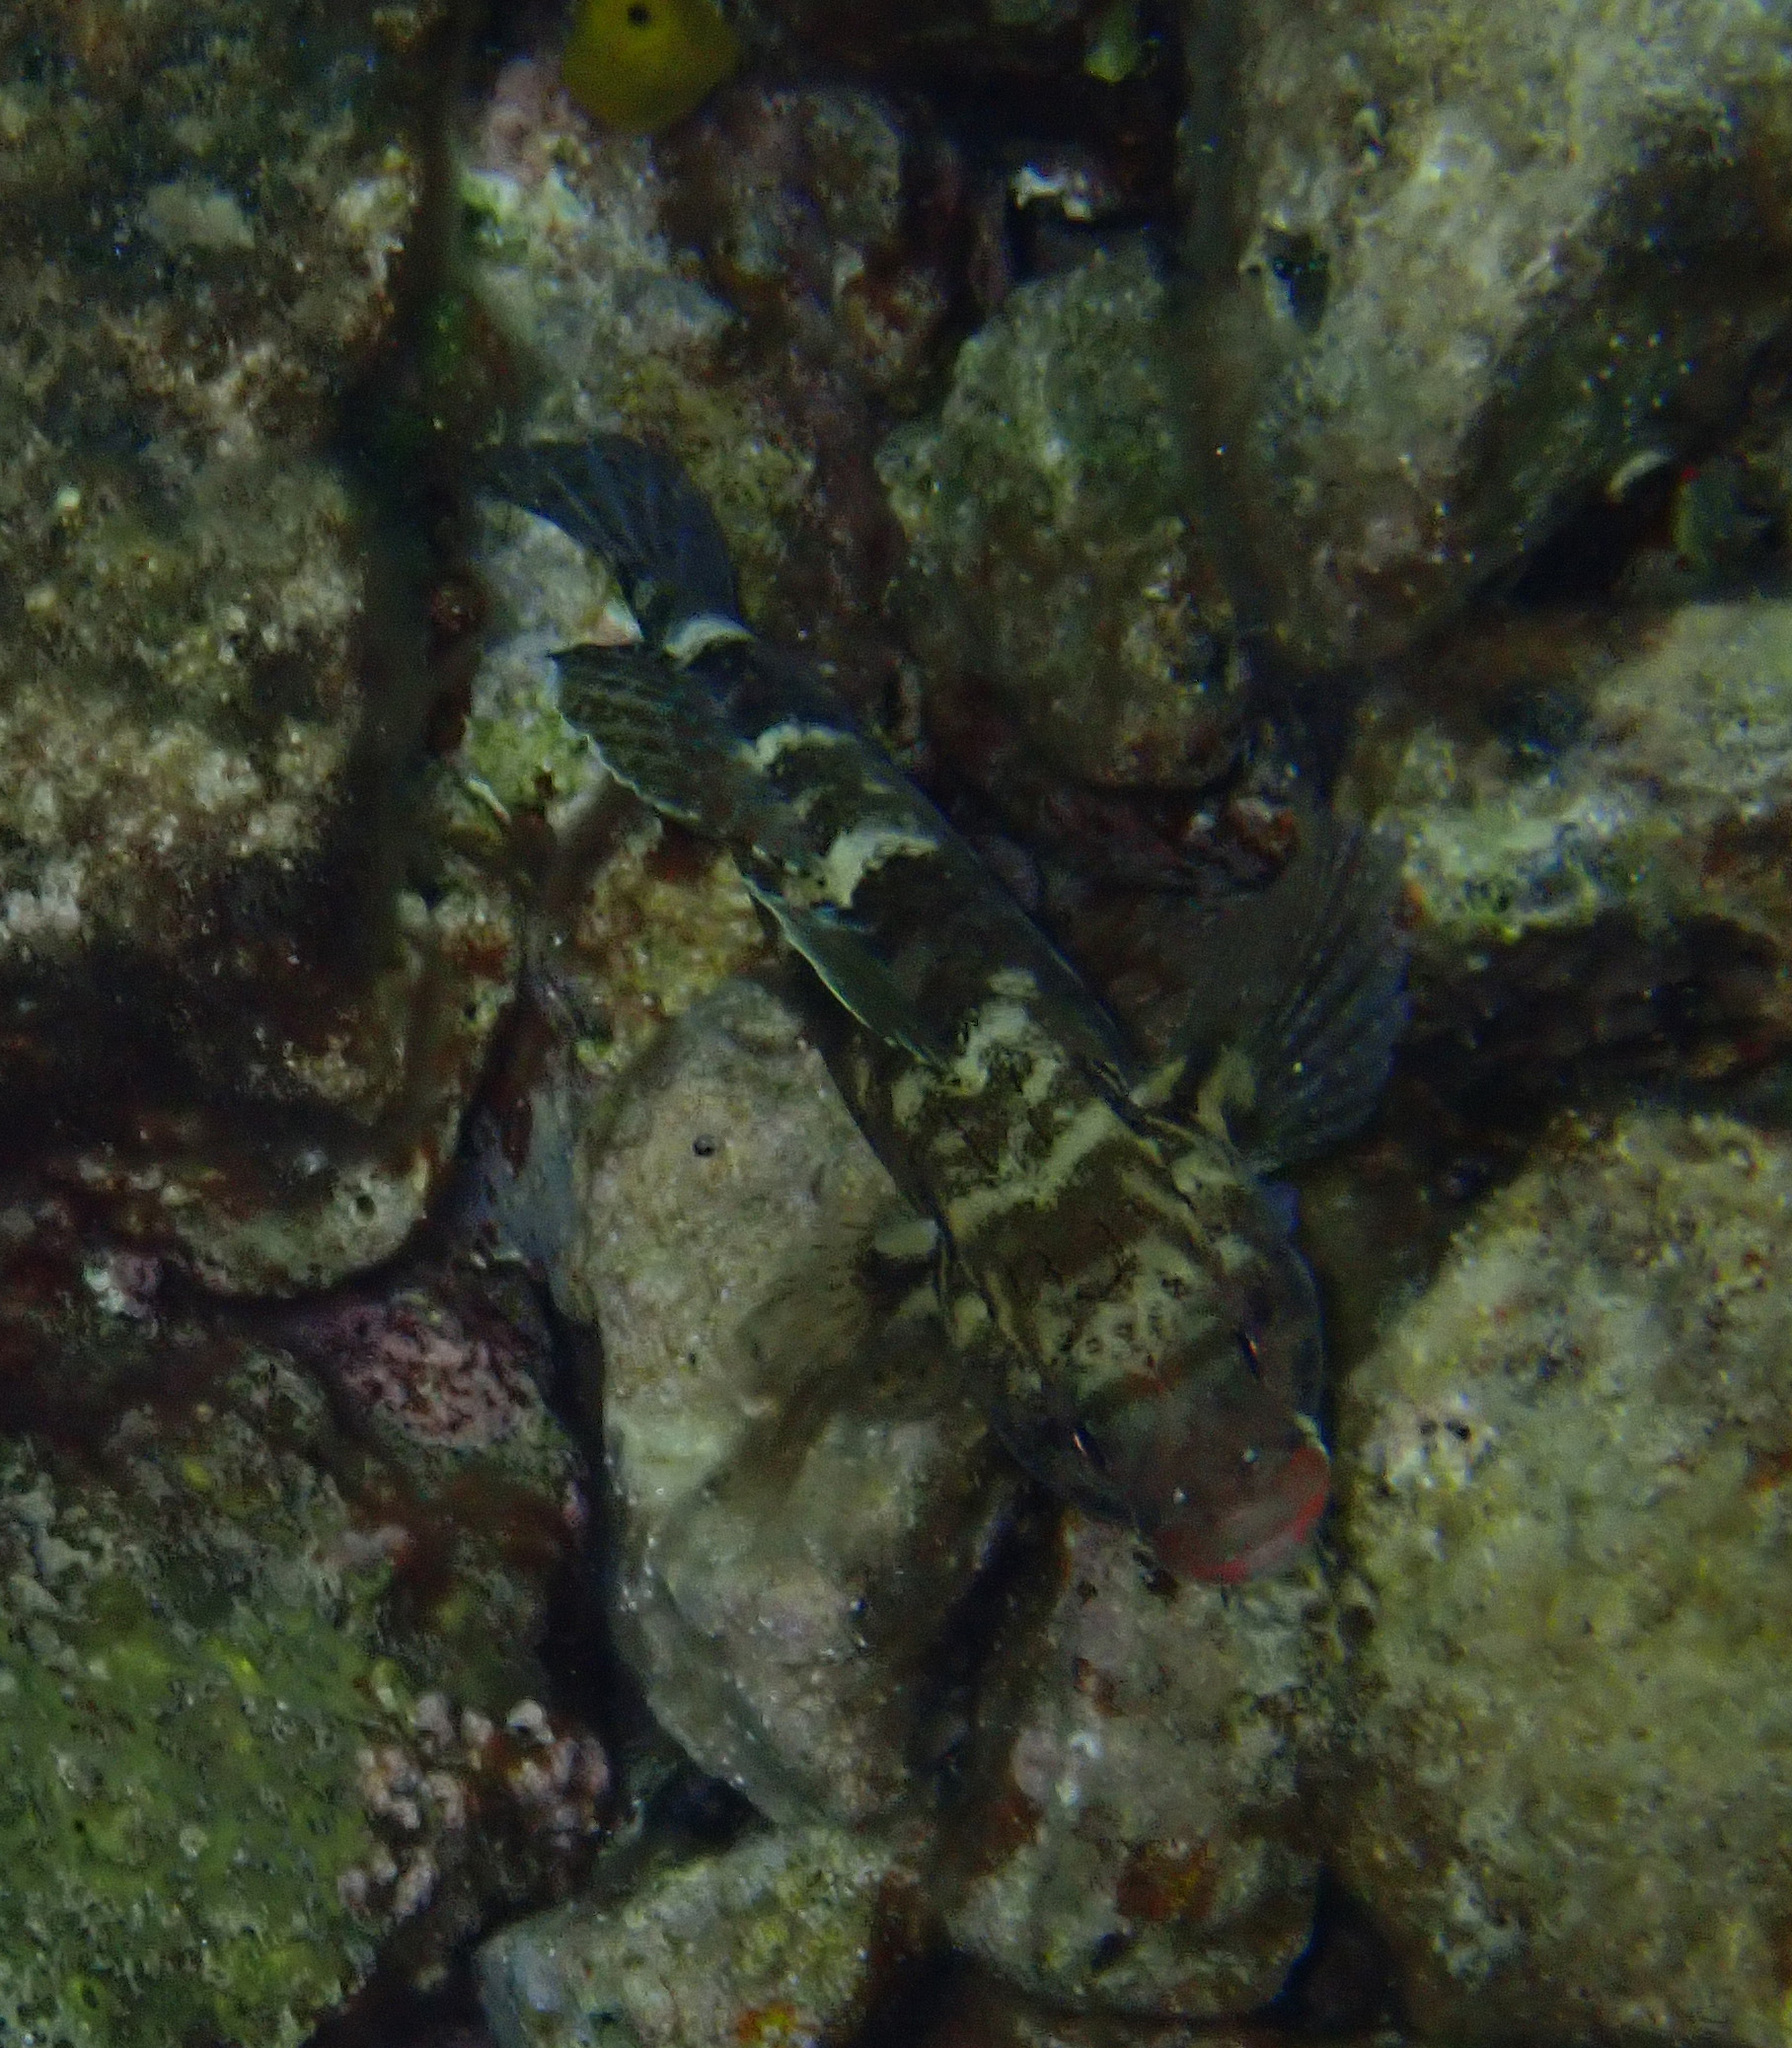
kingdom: Animalia
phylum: Chordata
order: Perciformes
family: Gobiidae
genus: Gobius
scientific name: Gobius cruentatus
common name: Red-mouthed goby
